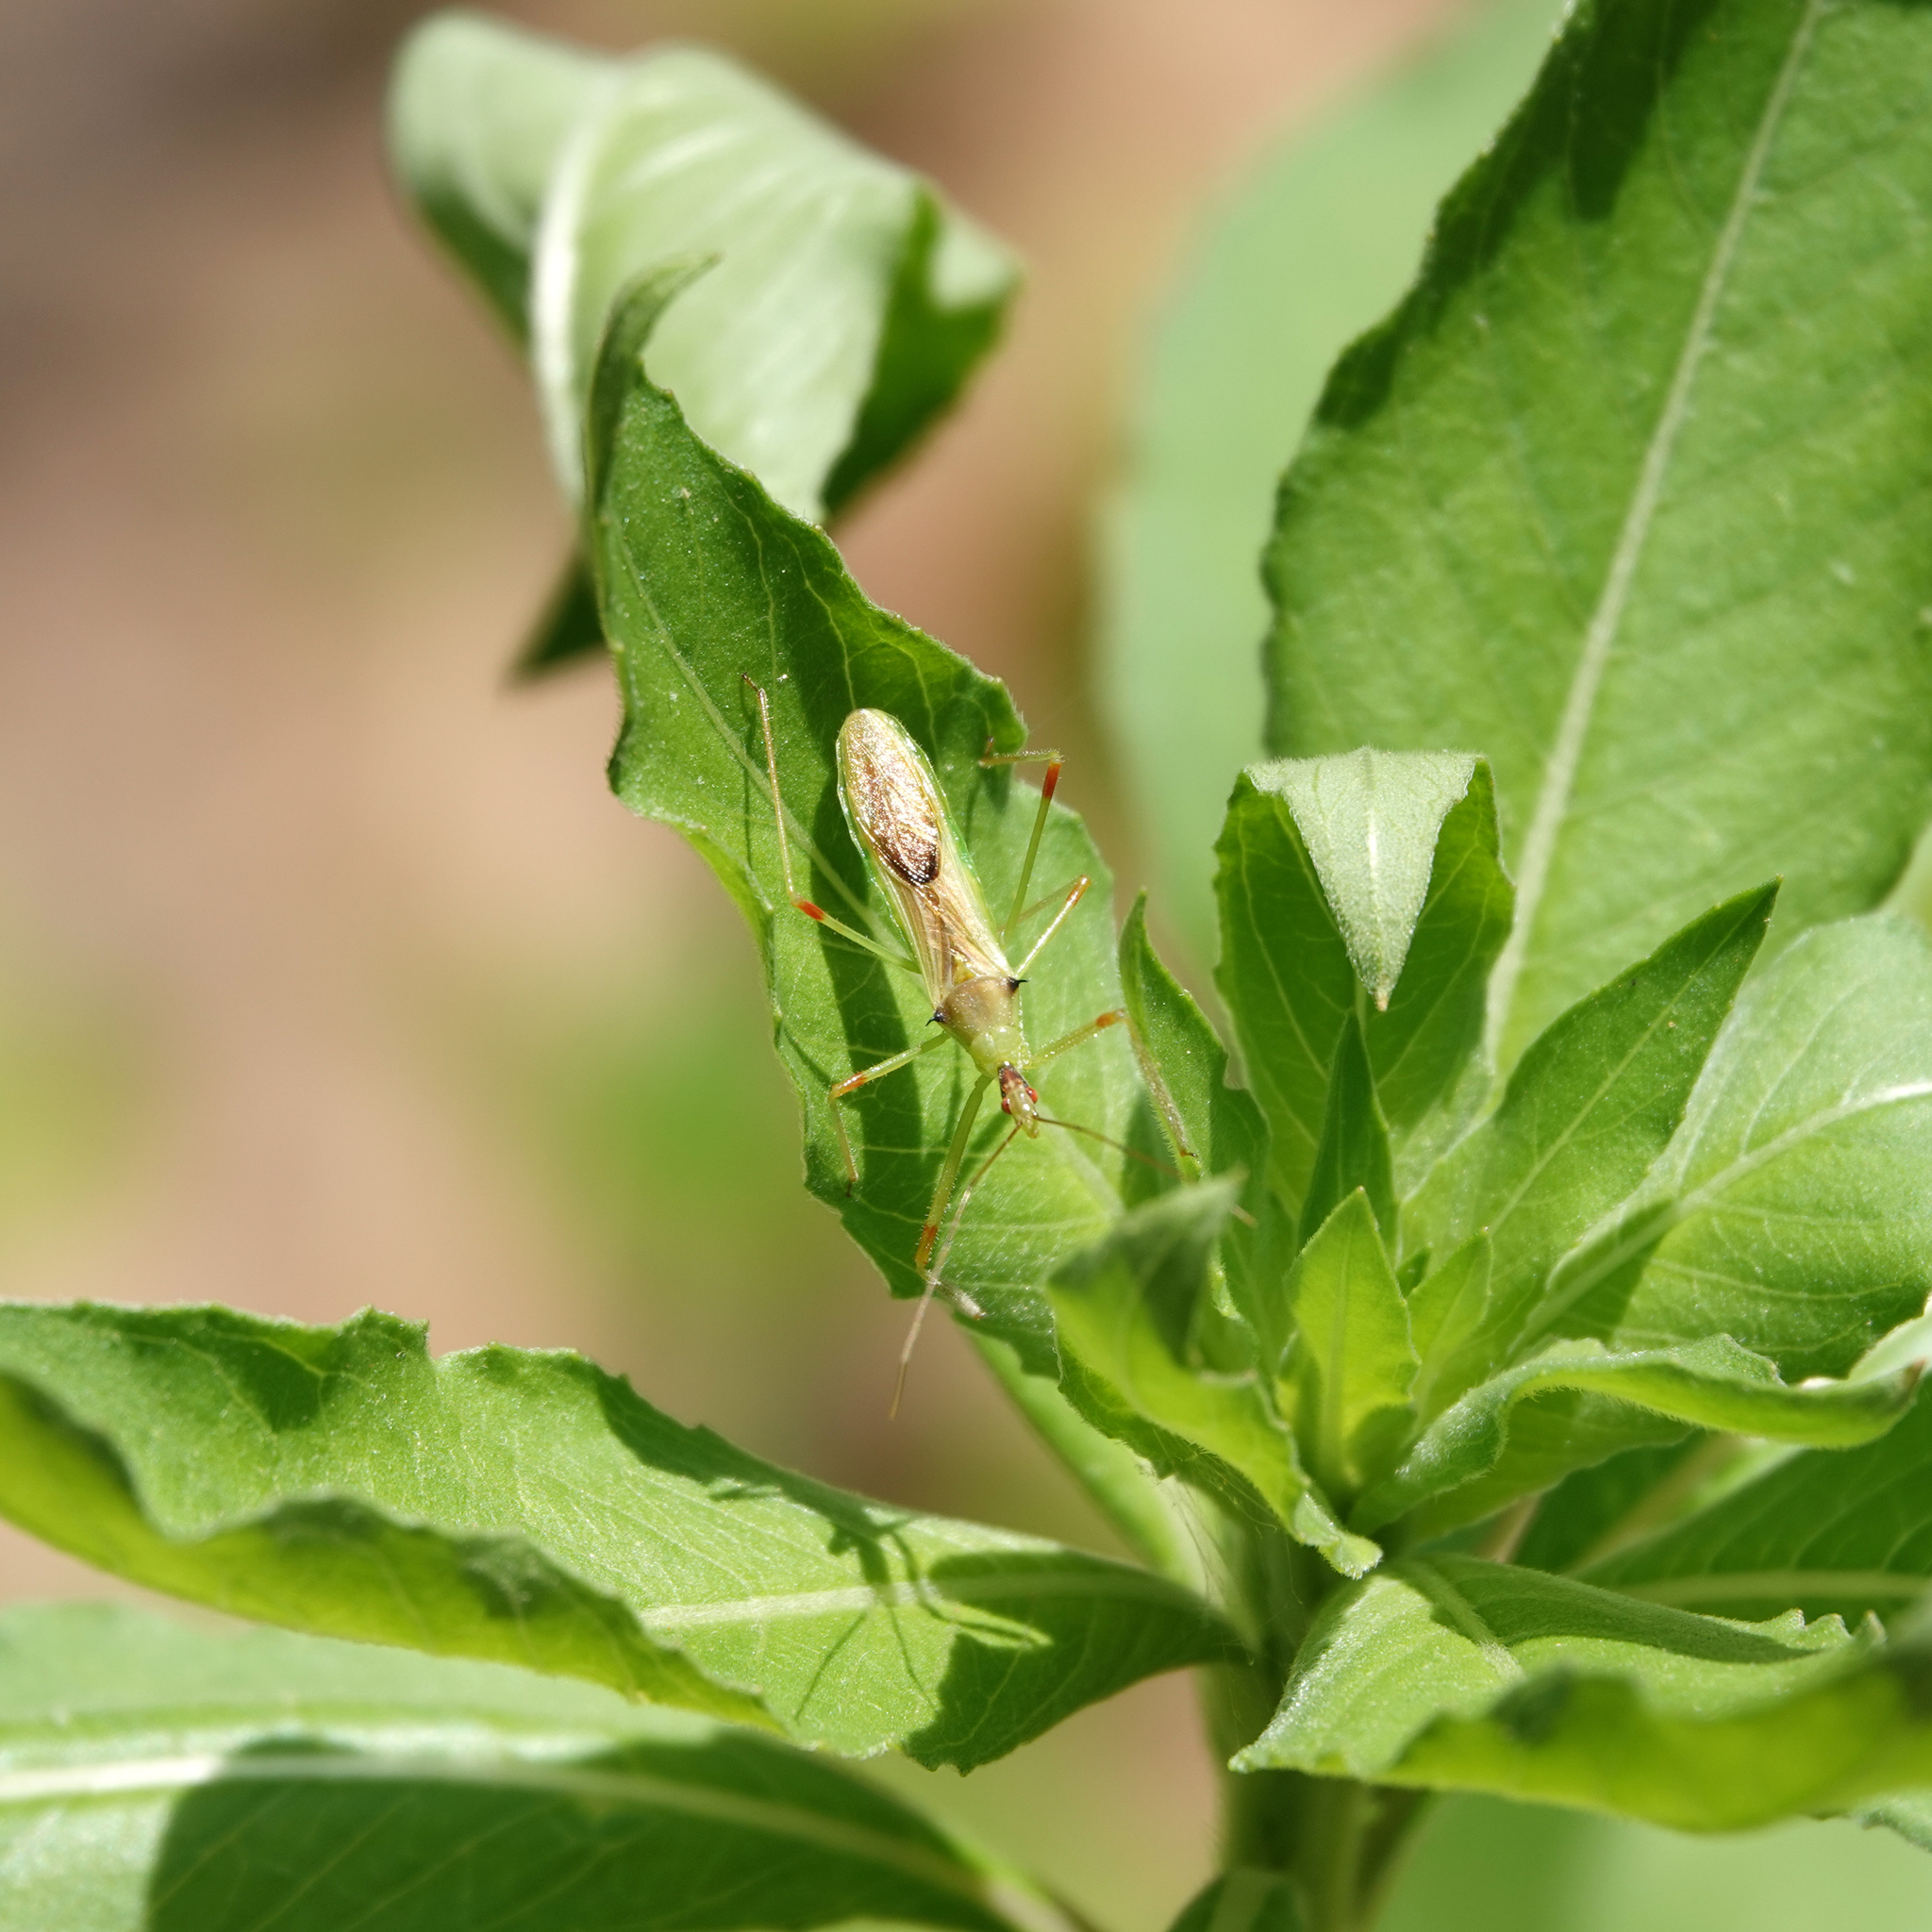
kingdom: Animalia
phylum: Arthropoda
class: Insecta
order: Hemiptera
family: Reduviidae
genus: Zelus
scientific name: Zelus luridus
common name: Pale green assassin bug
